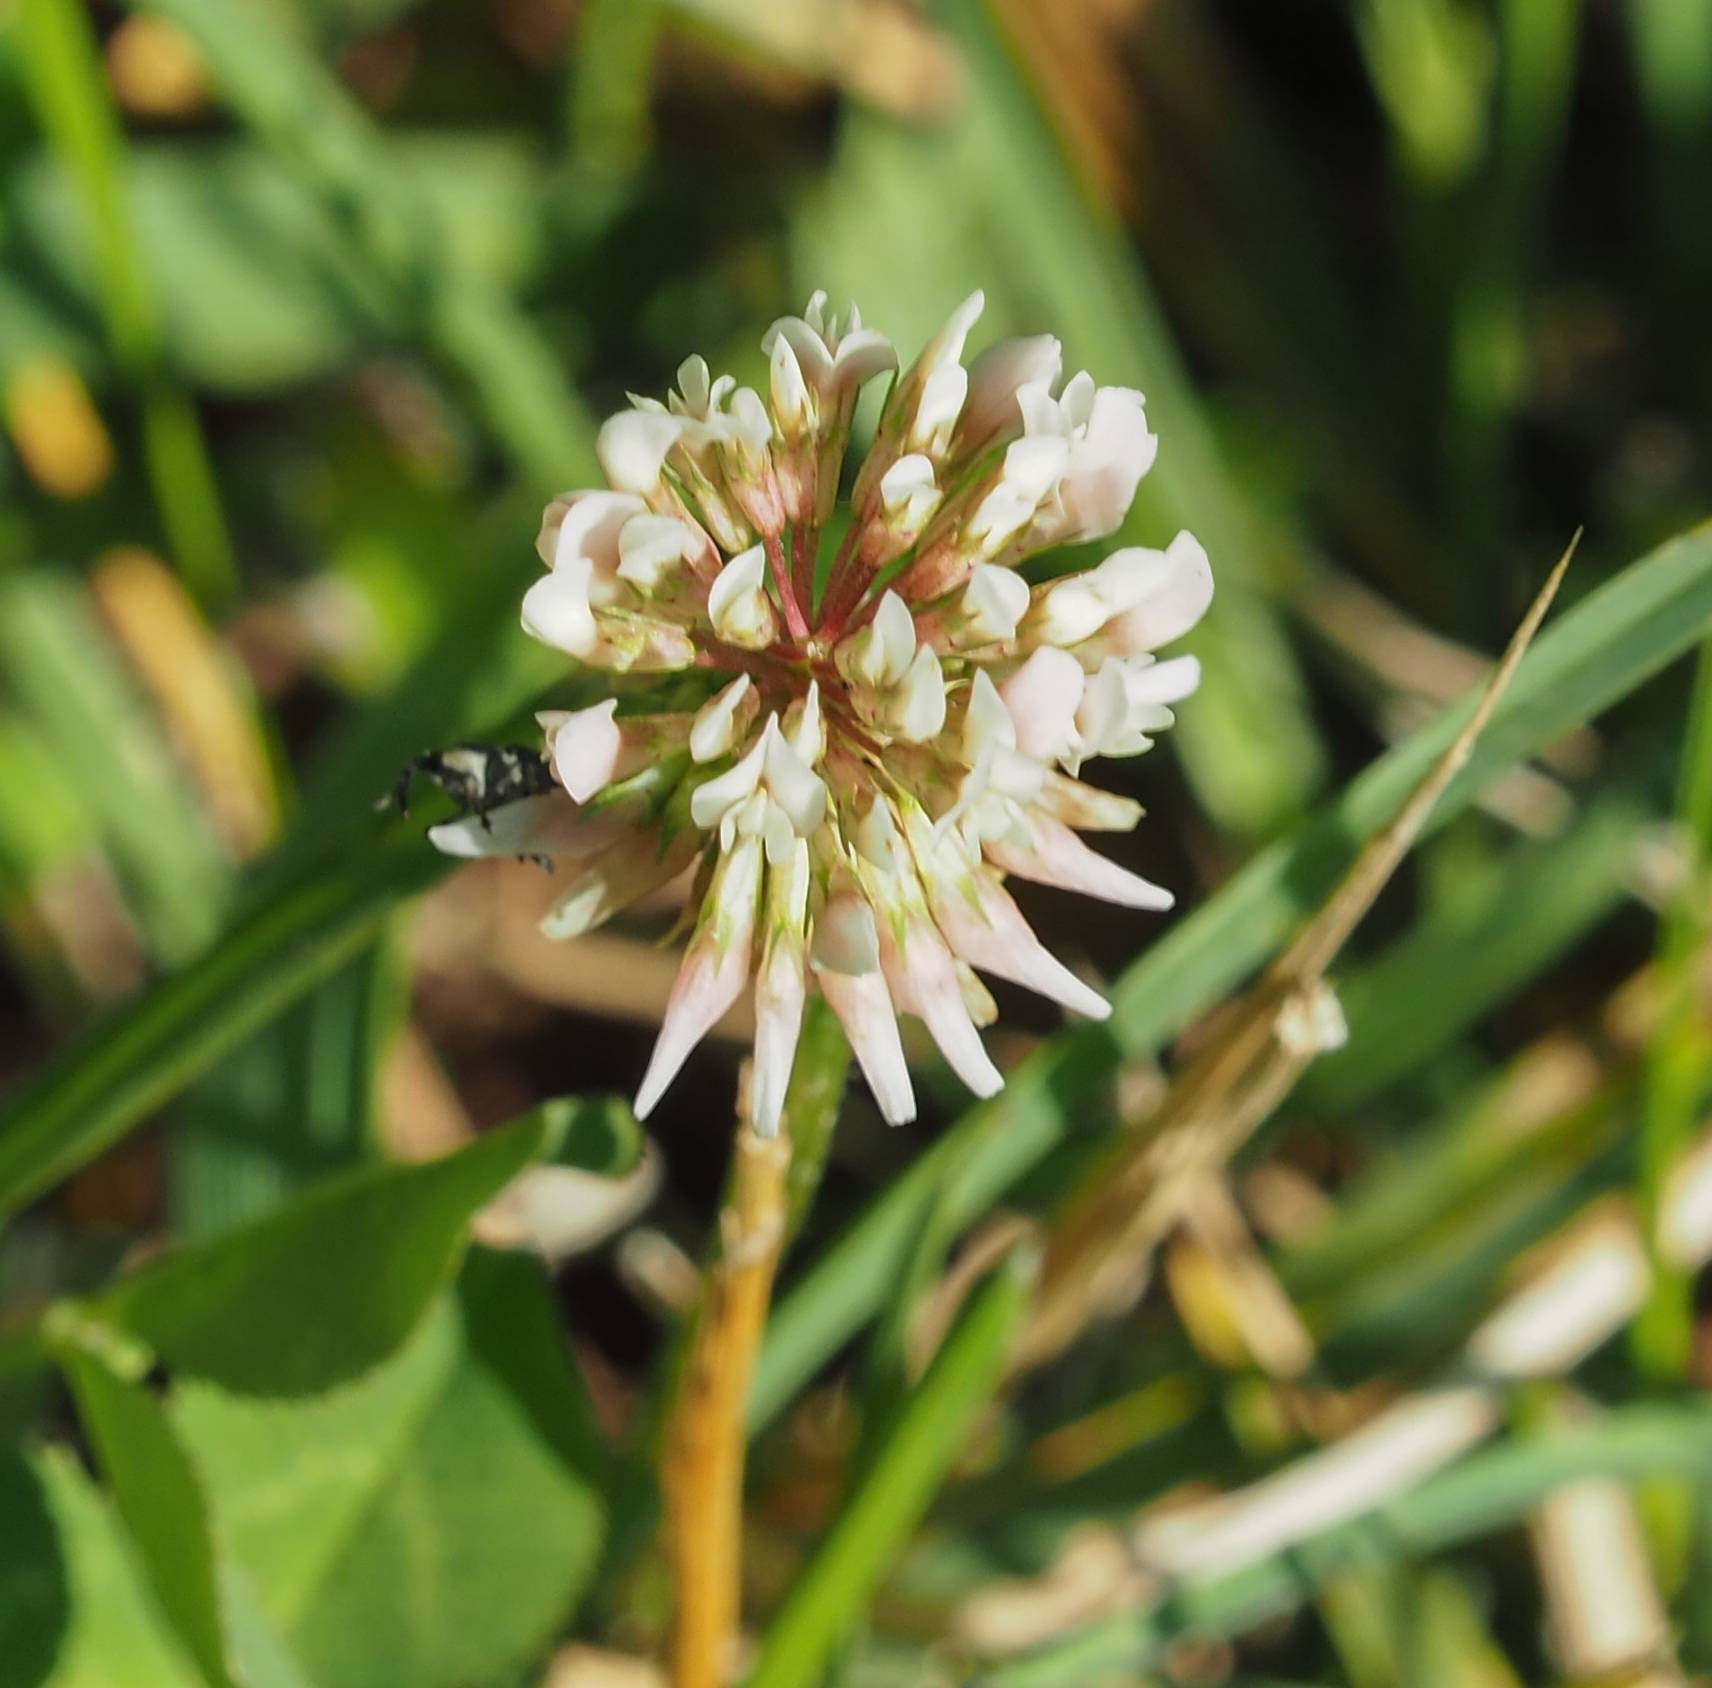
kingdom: Plantae
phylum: Tracheophyta
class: Magnoliopsida
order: Fabales
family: Fabaceae
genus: Trifolium
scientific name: Trifolium repens
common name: White clover
